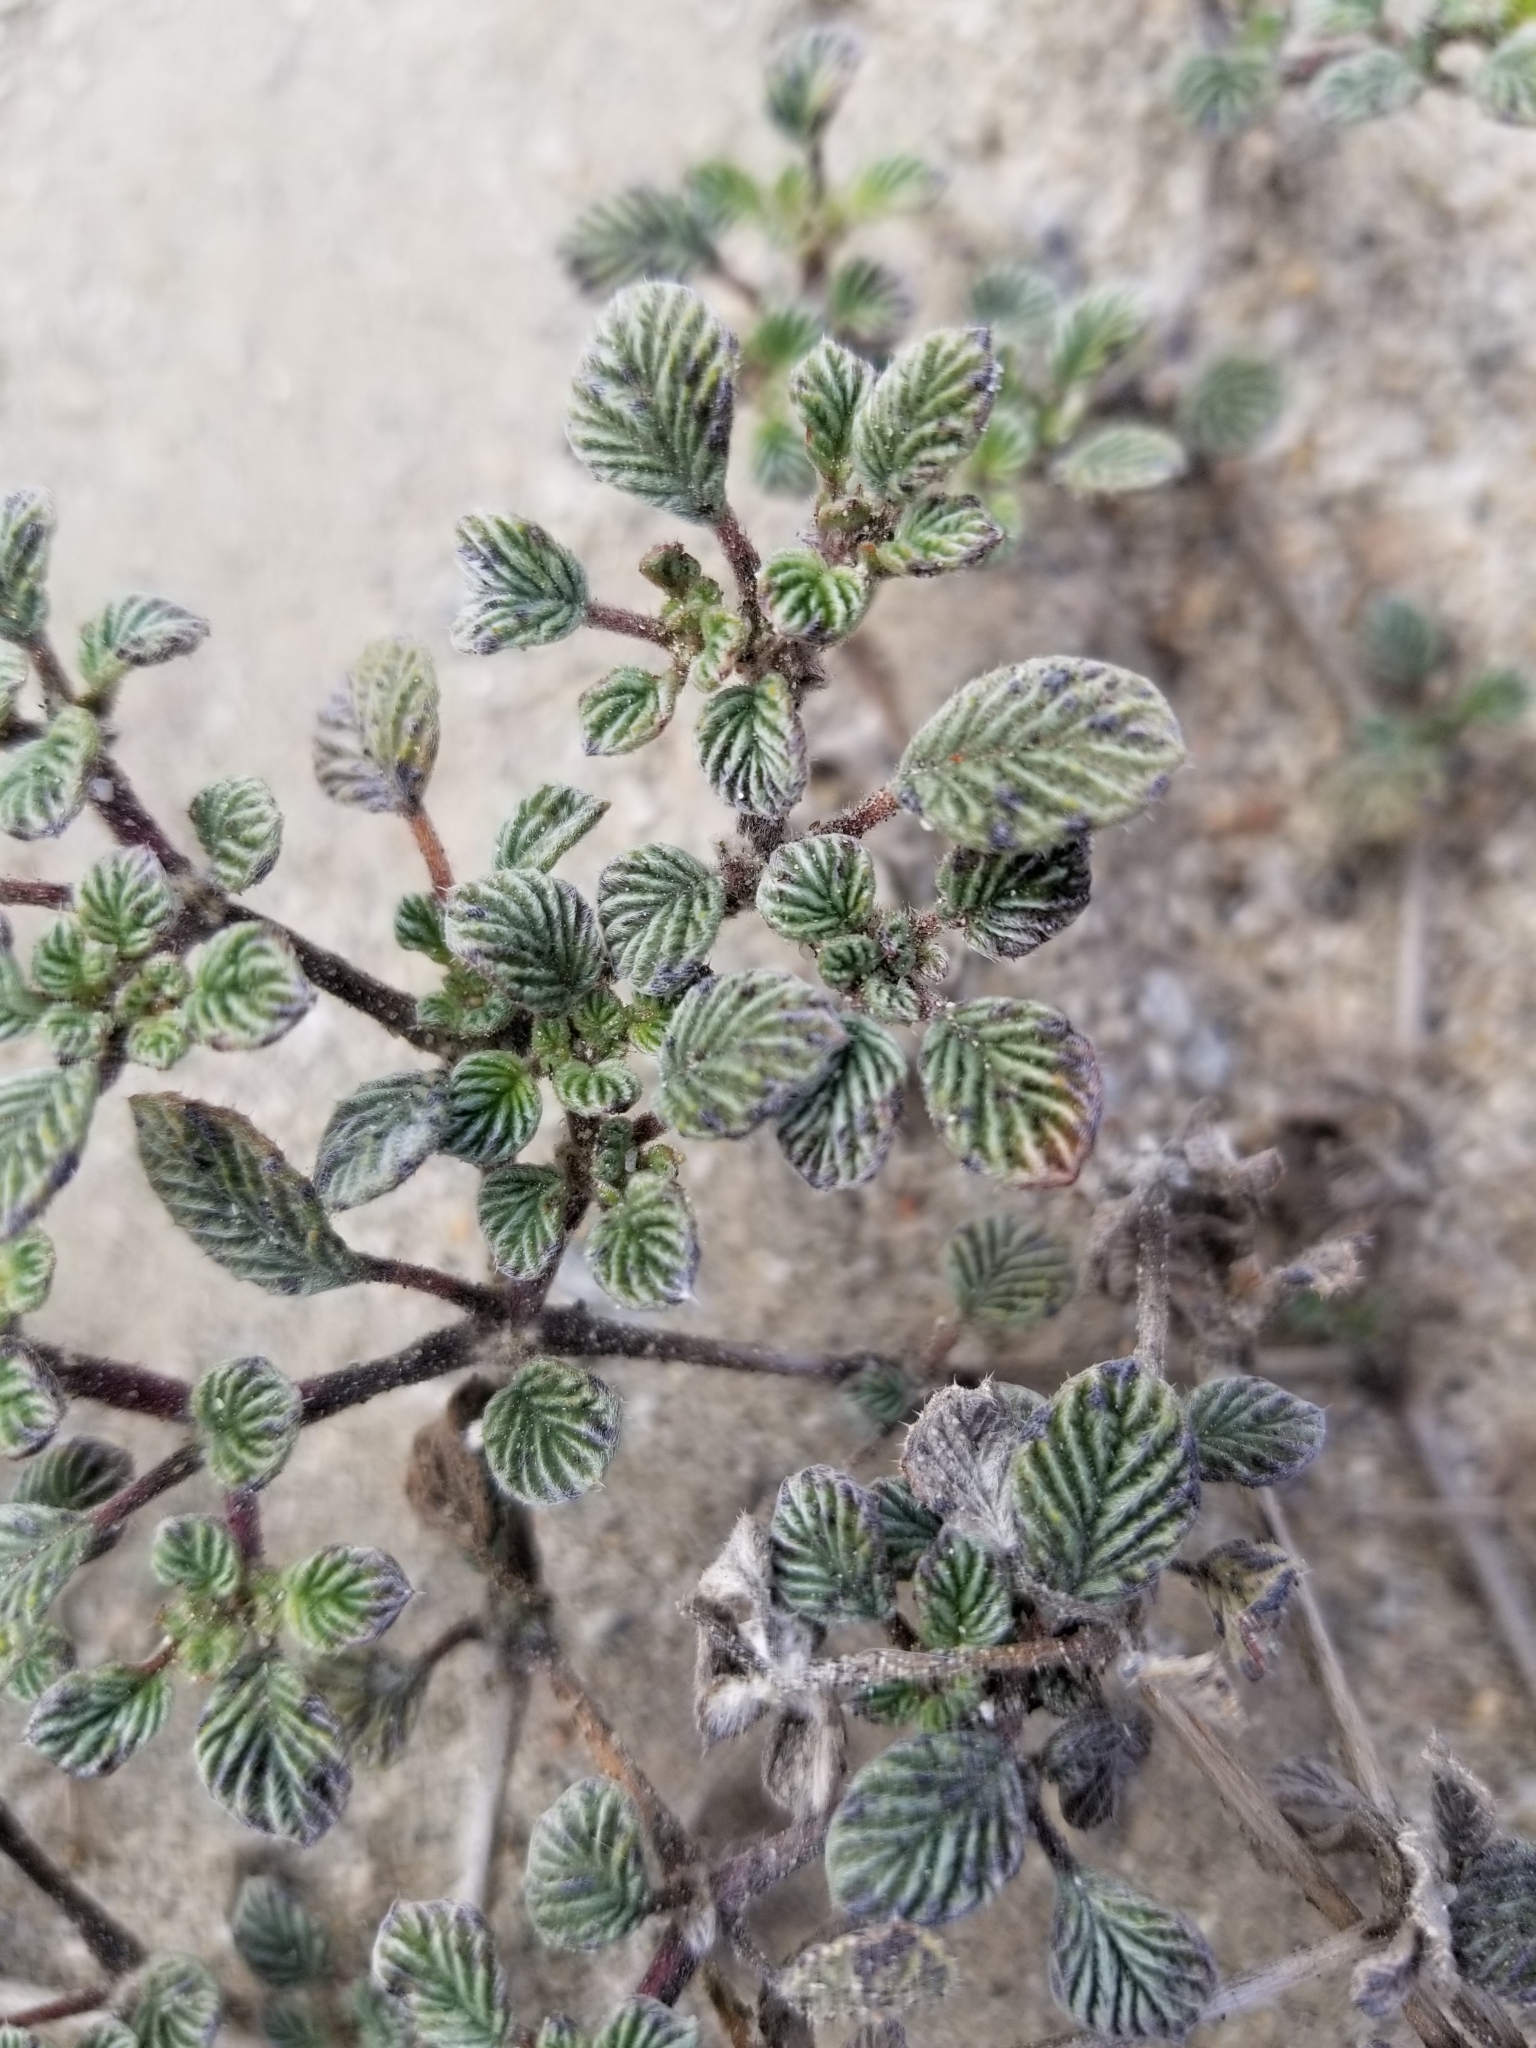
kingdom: Plantae
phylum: Tracheophyta
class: Magnoliopsida
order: Boraginales
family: Ehretiaceae
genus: Tiquilia
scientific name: Tiquilia plicata
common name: Fan-leaf tiquilia
